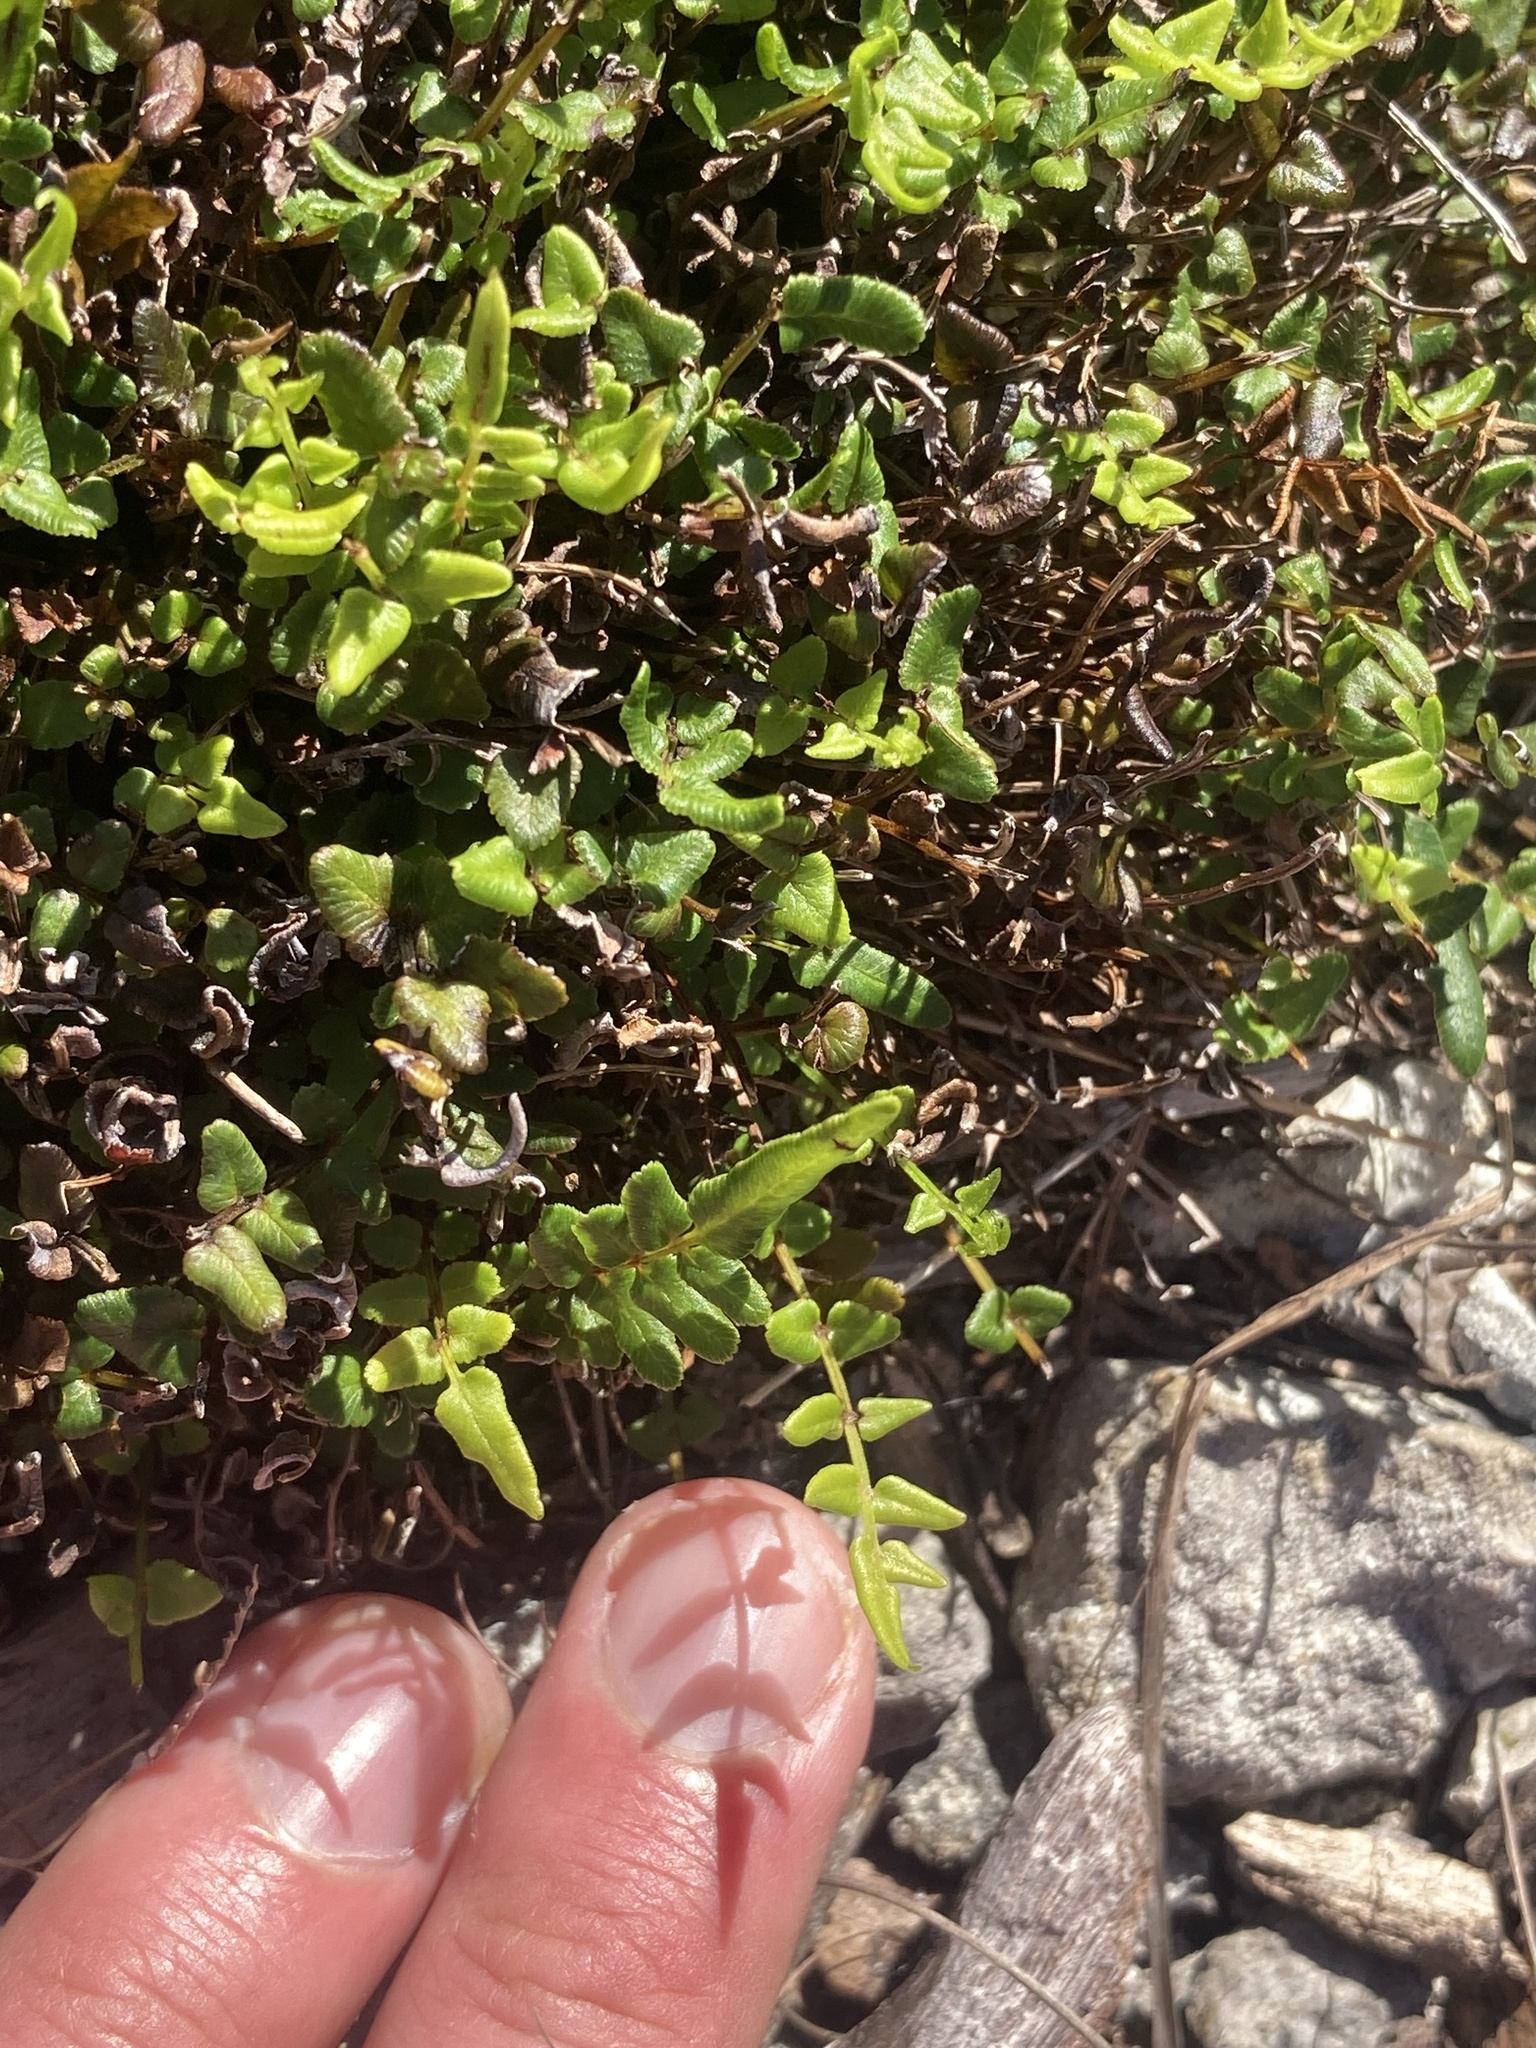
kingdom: Plantae
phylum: Tracheophyta
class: Polypodiopsida
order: Polypodiales
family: Pteridaceae
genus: Pteris
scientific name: Pteris bahamensis
